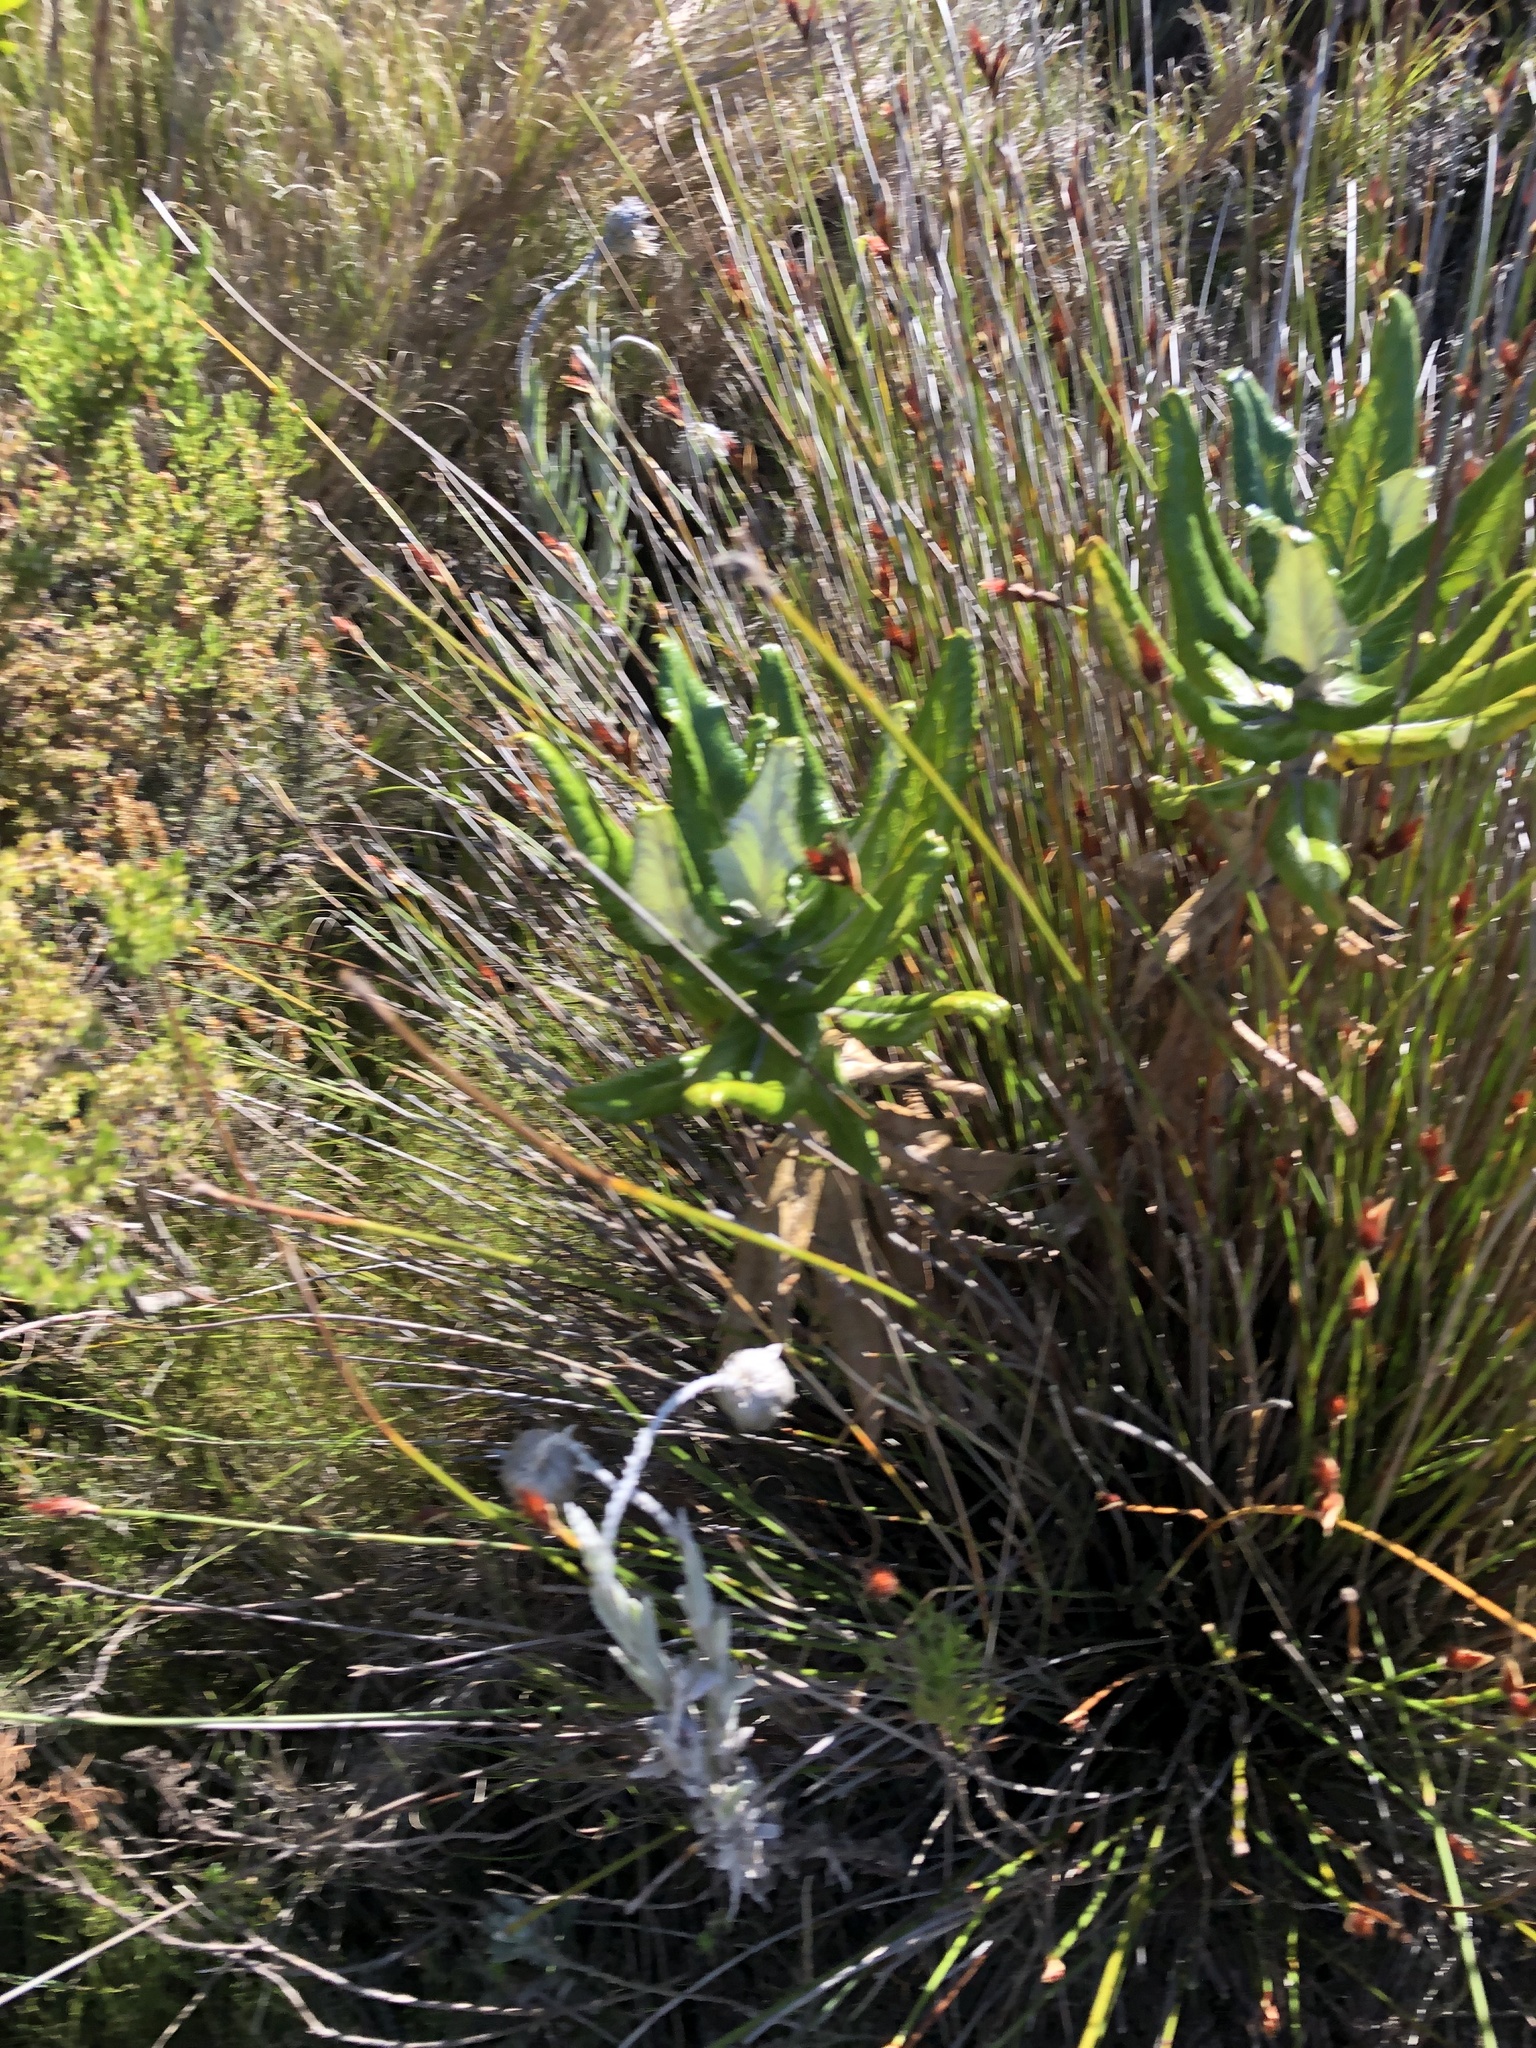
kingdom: Plantae
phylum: Tracheophyta
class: Magnoliopsida
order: Apiales
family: Apiaceae
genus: Hermas
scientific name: Hermas villosa
